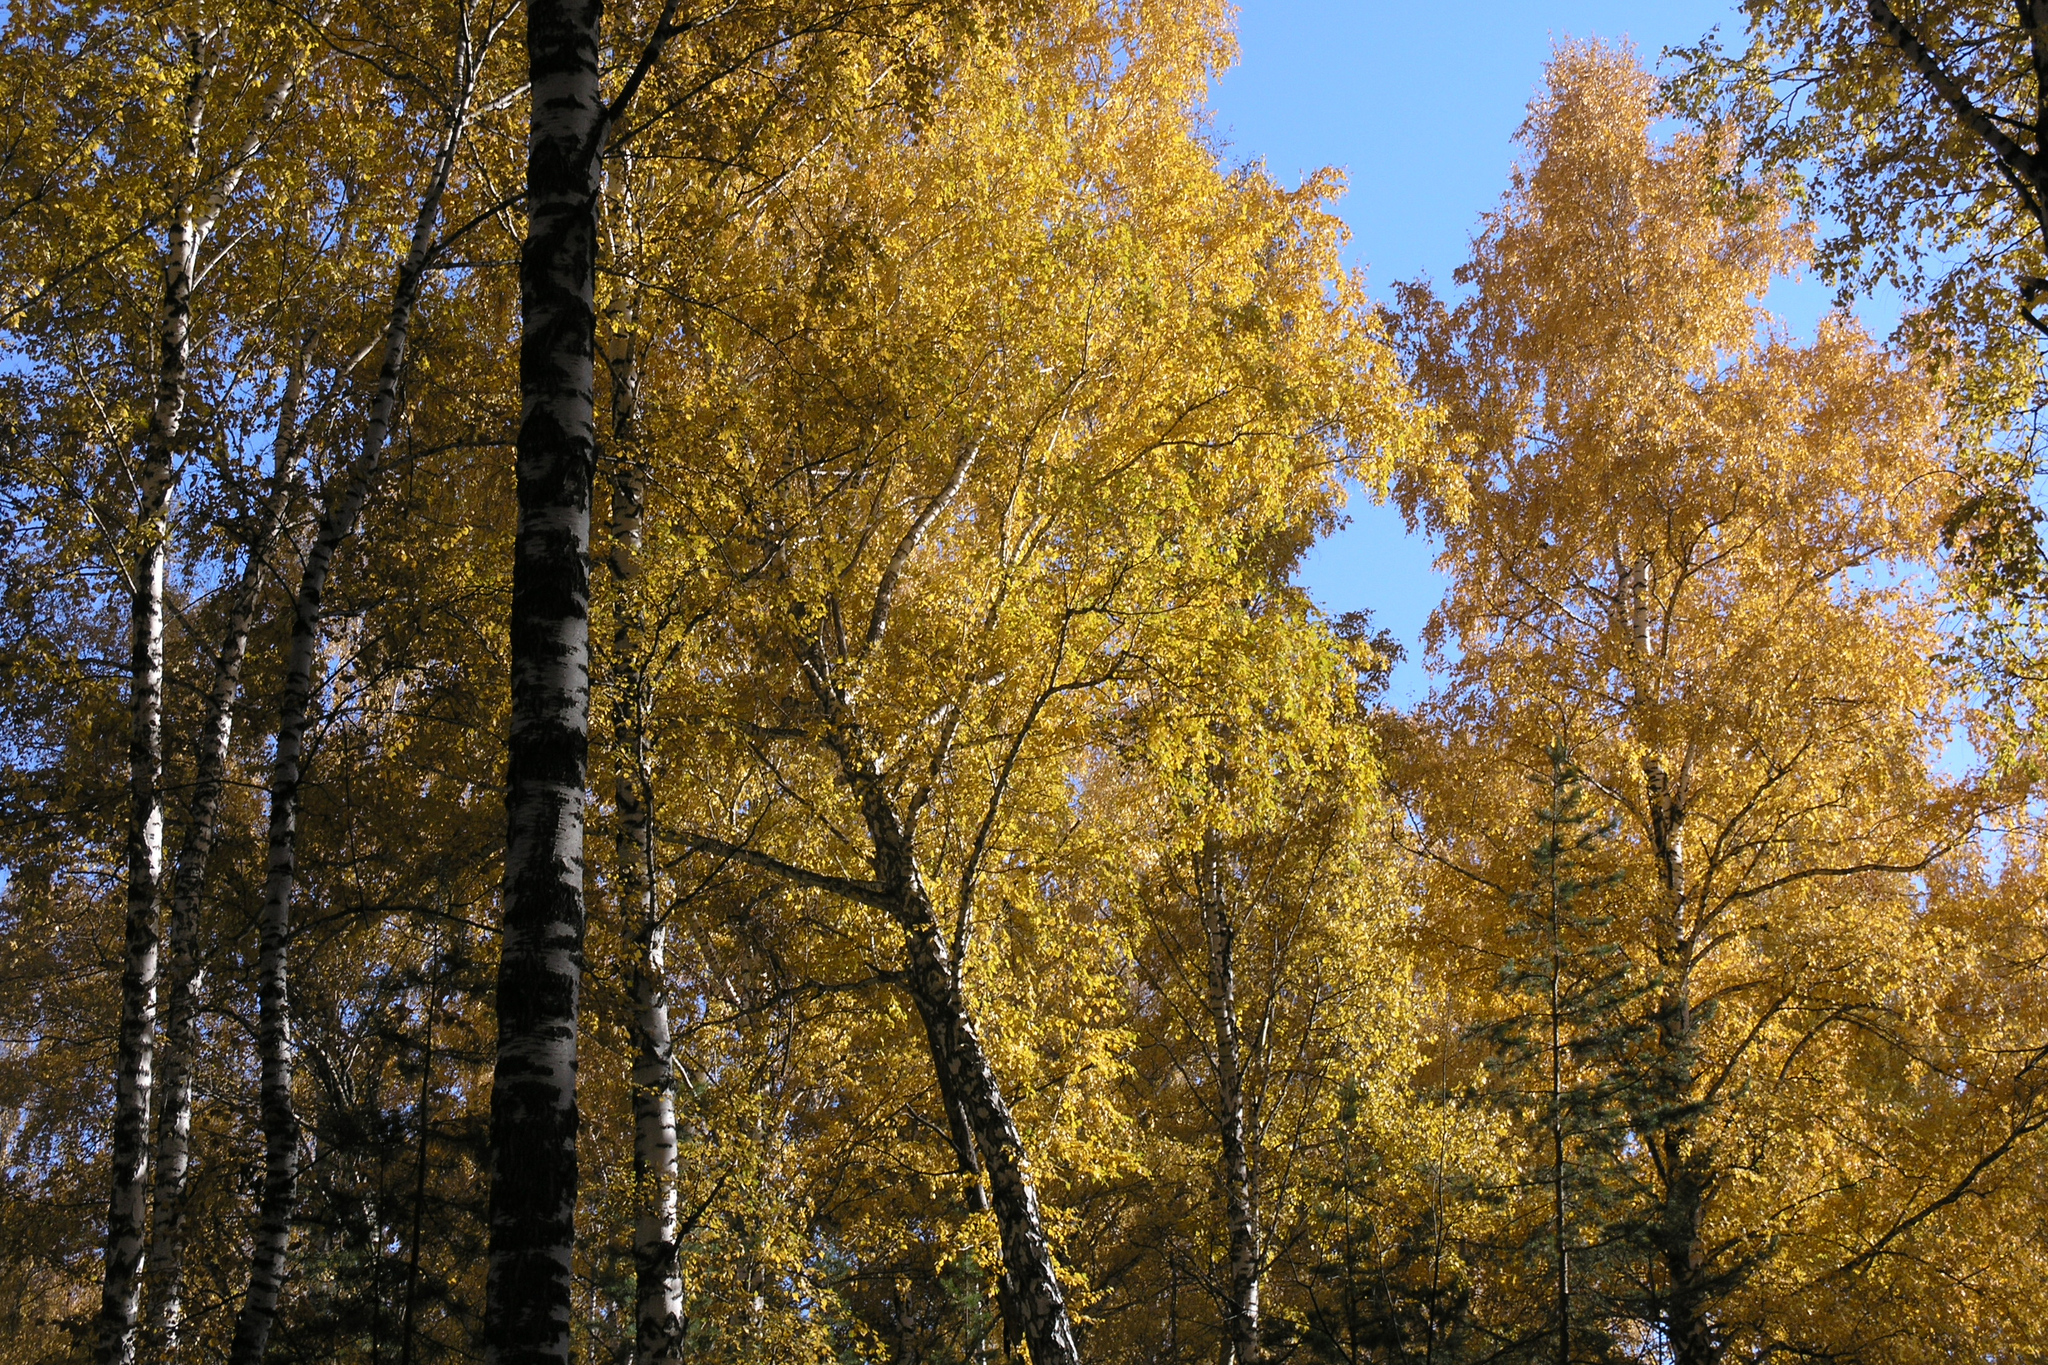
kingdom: Plantae
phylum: Tracheophyta
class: Magnoliopsida
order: Fagales
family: Betulaceae
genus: Betula
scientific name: Betula pendula
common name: Silver birch
